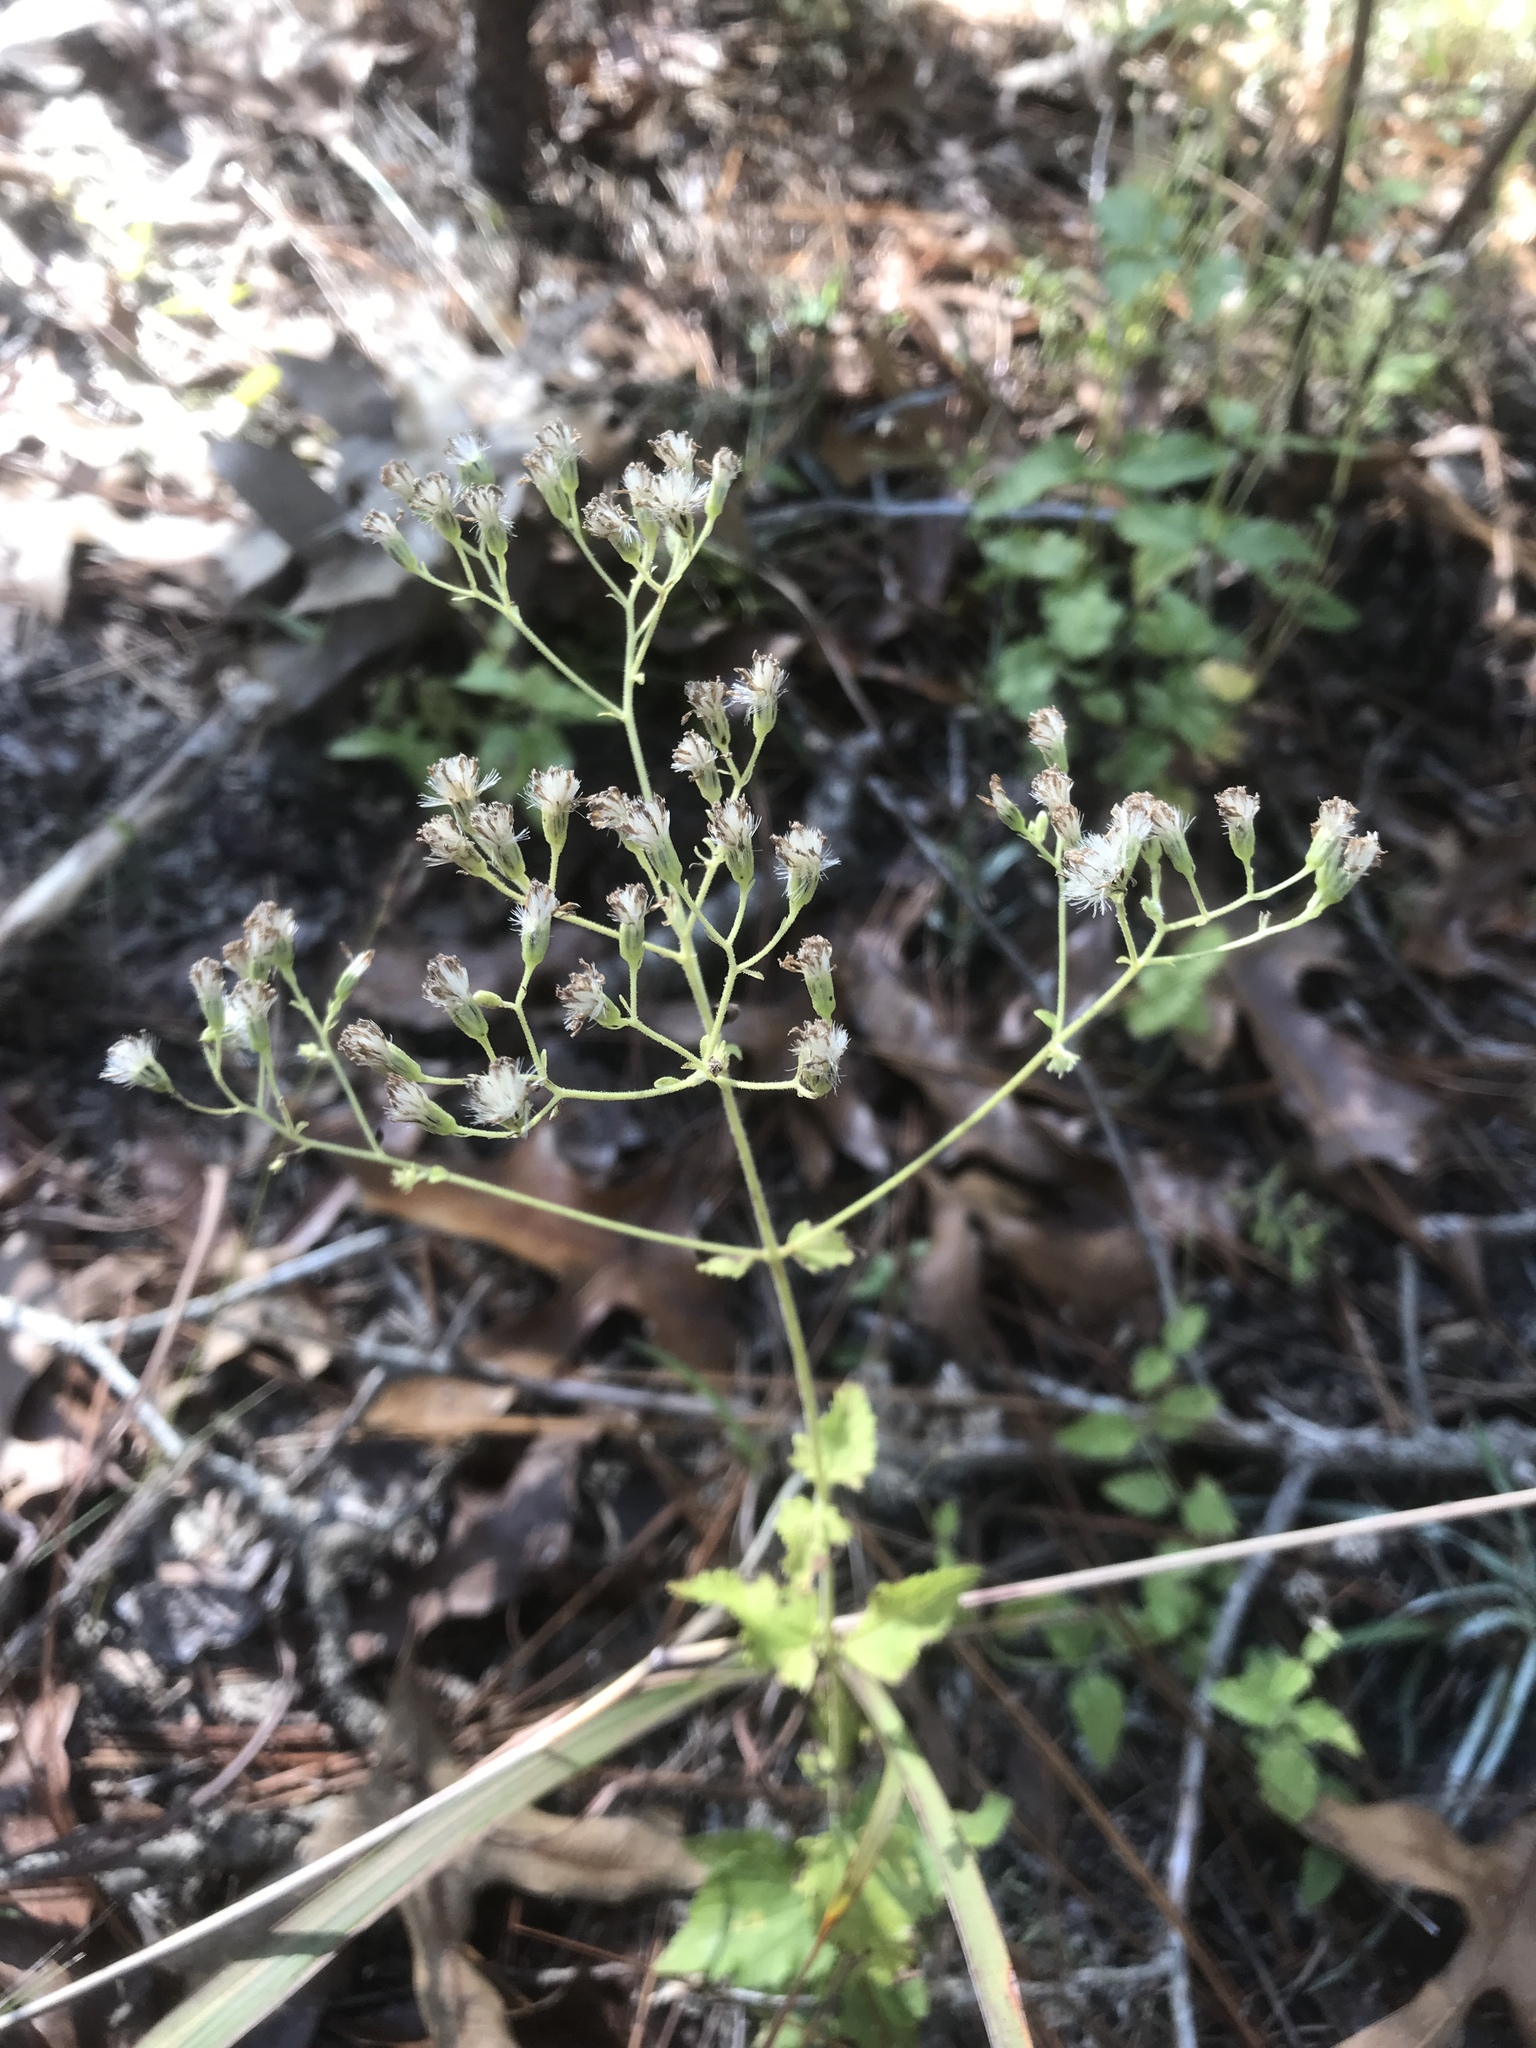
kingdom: Plantae
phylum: Tracheophyta
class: Magnoliopsida
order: Asterales
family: Asteraceae
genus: Ageratina
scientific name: Ageratina aromatica
